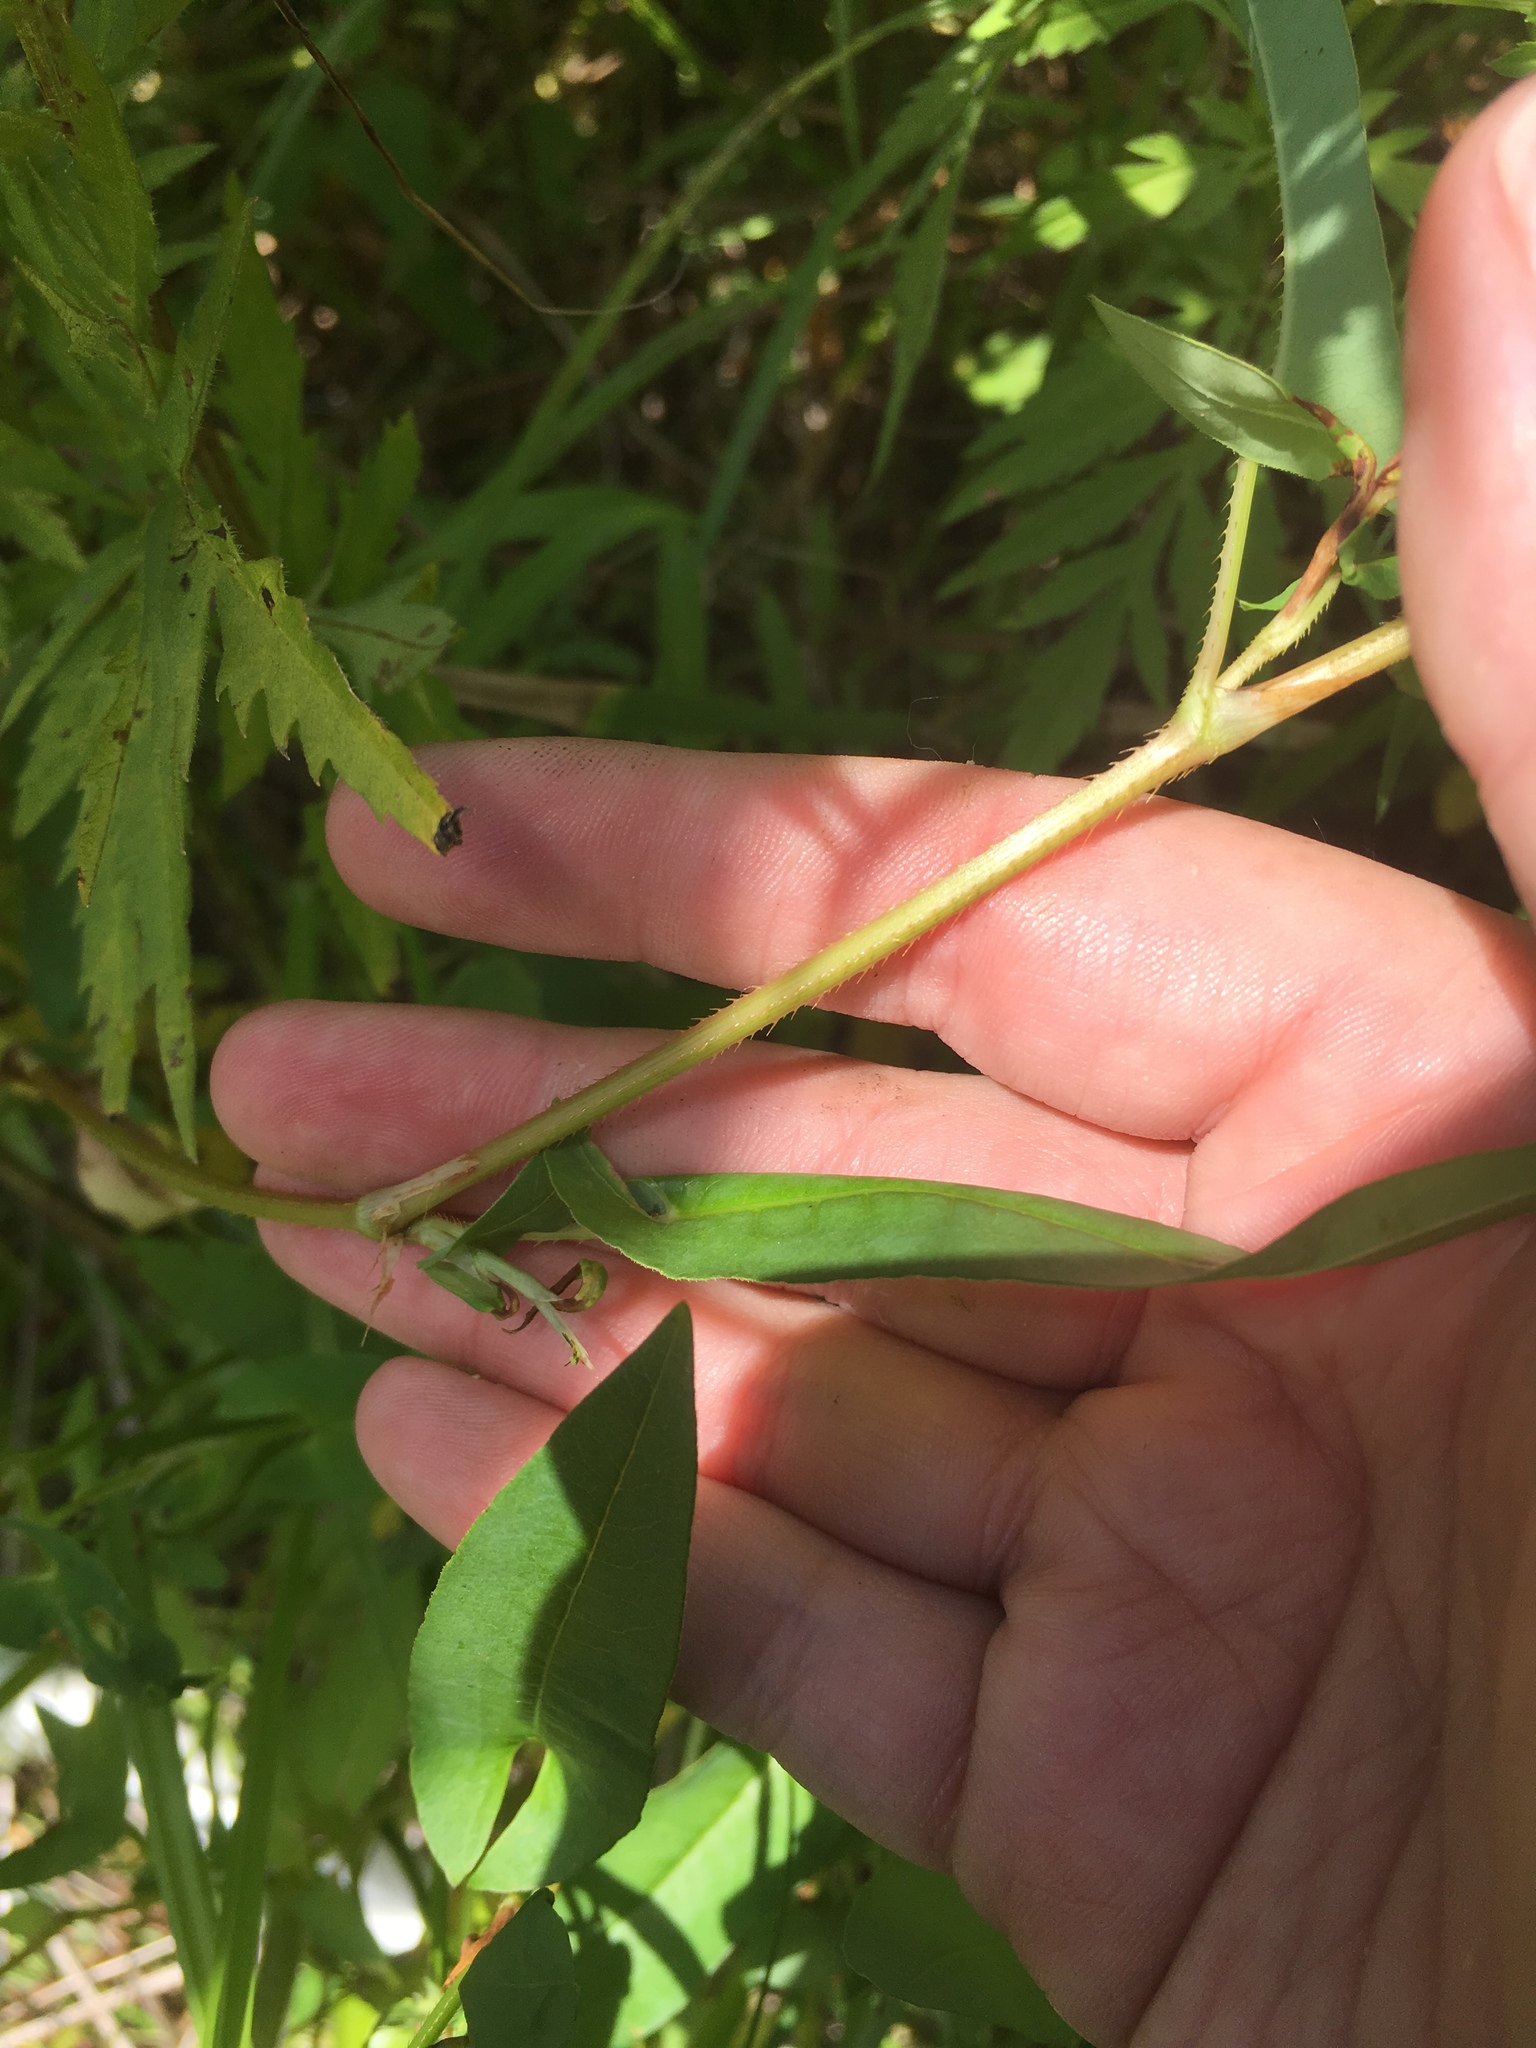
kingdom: Plantae
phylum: Tracheophyta
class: Magnoliopsida
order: Caryophyllales
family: Polygonaceae
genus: Persicaria
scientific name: Persicaria sagittata
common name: American tearthumb
